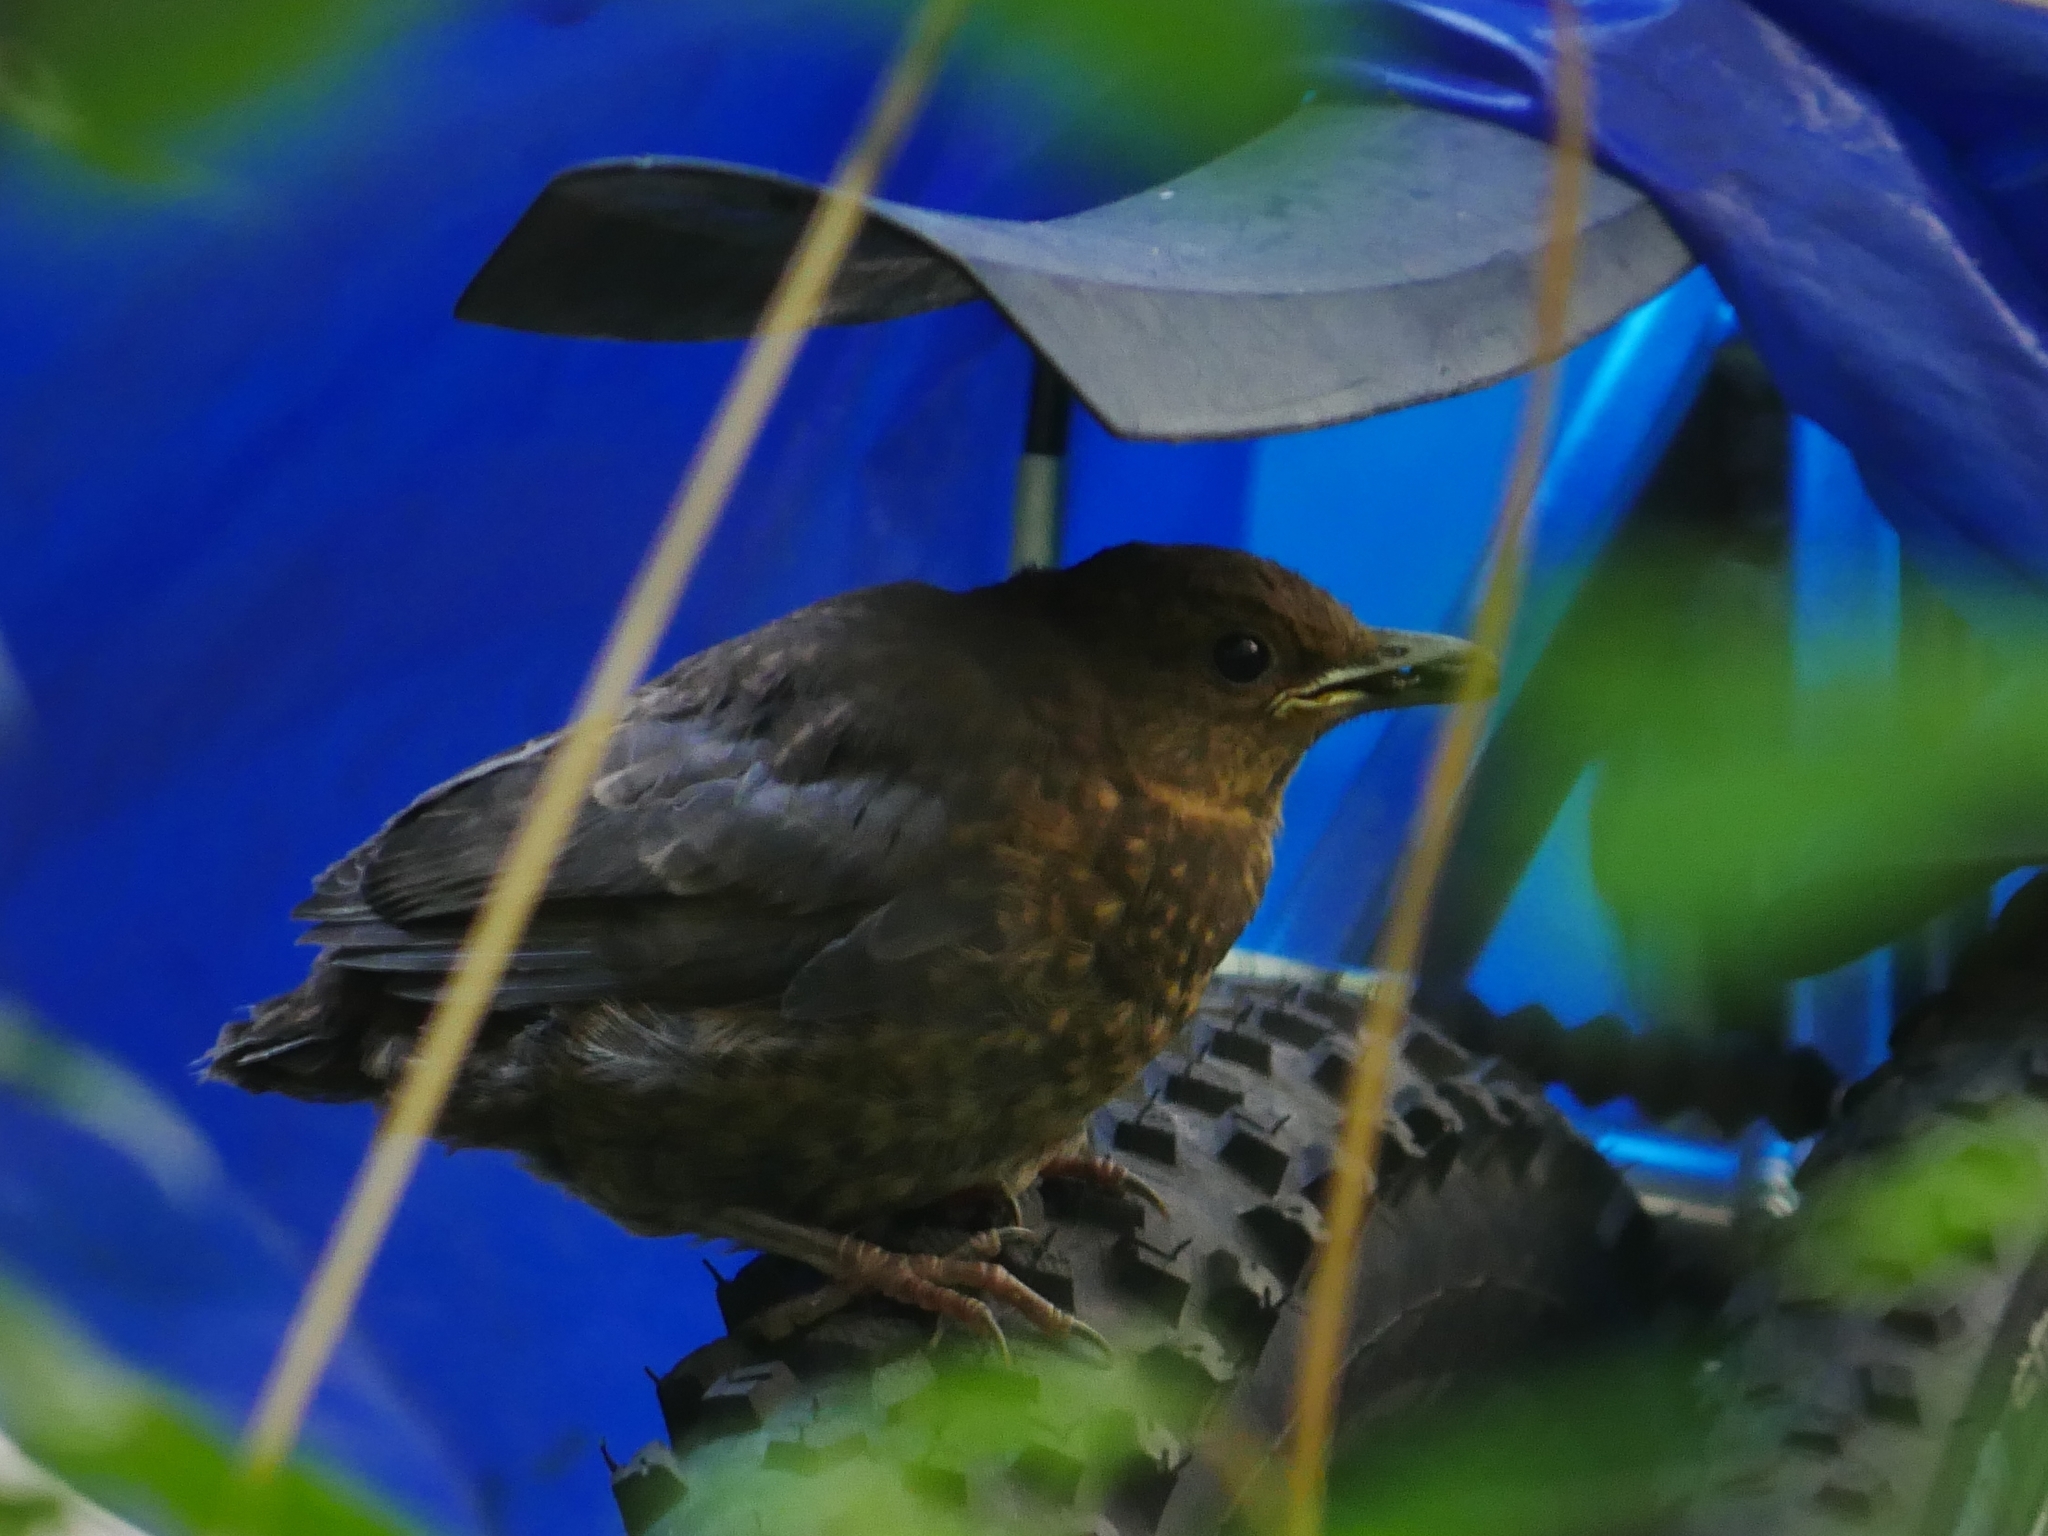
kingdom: Animalia
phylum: Chordata
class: Aves
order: Passeriformes
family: Turdidae
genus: Turdus
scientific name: Turdus merula
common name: Common blackbird
